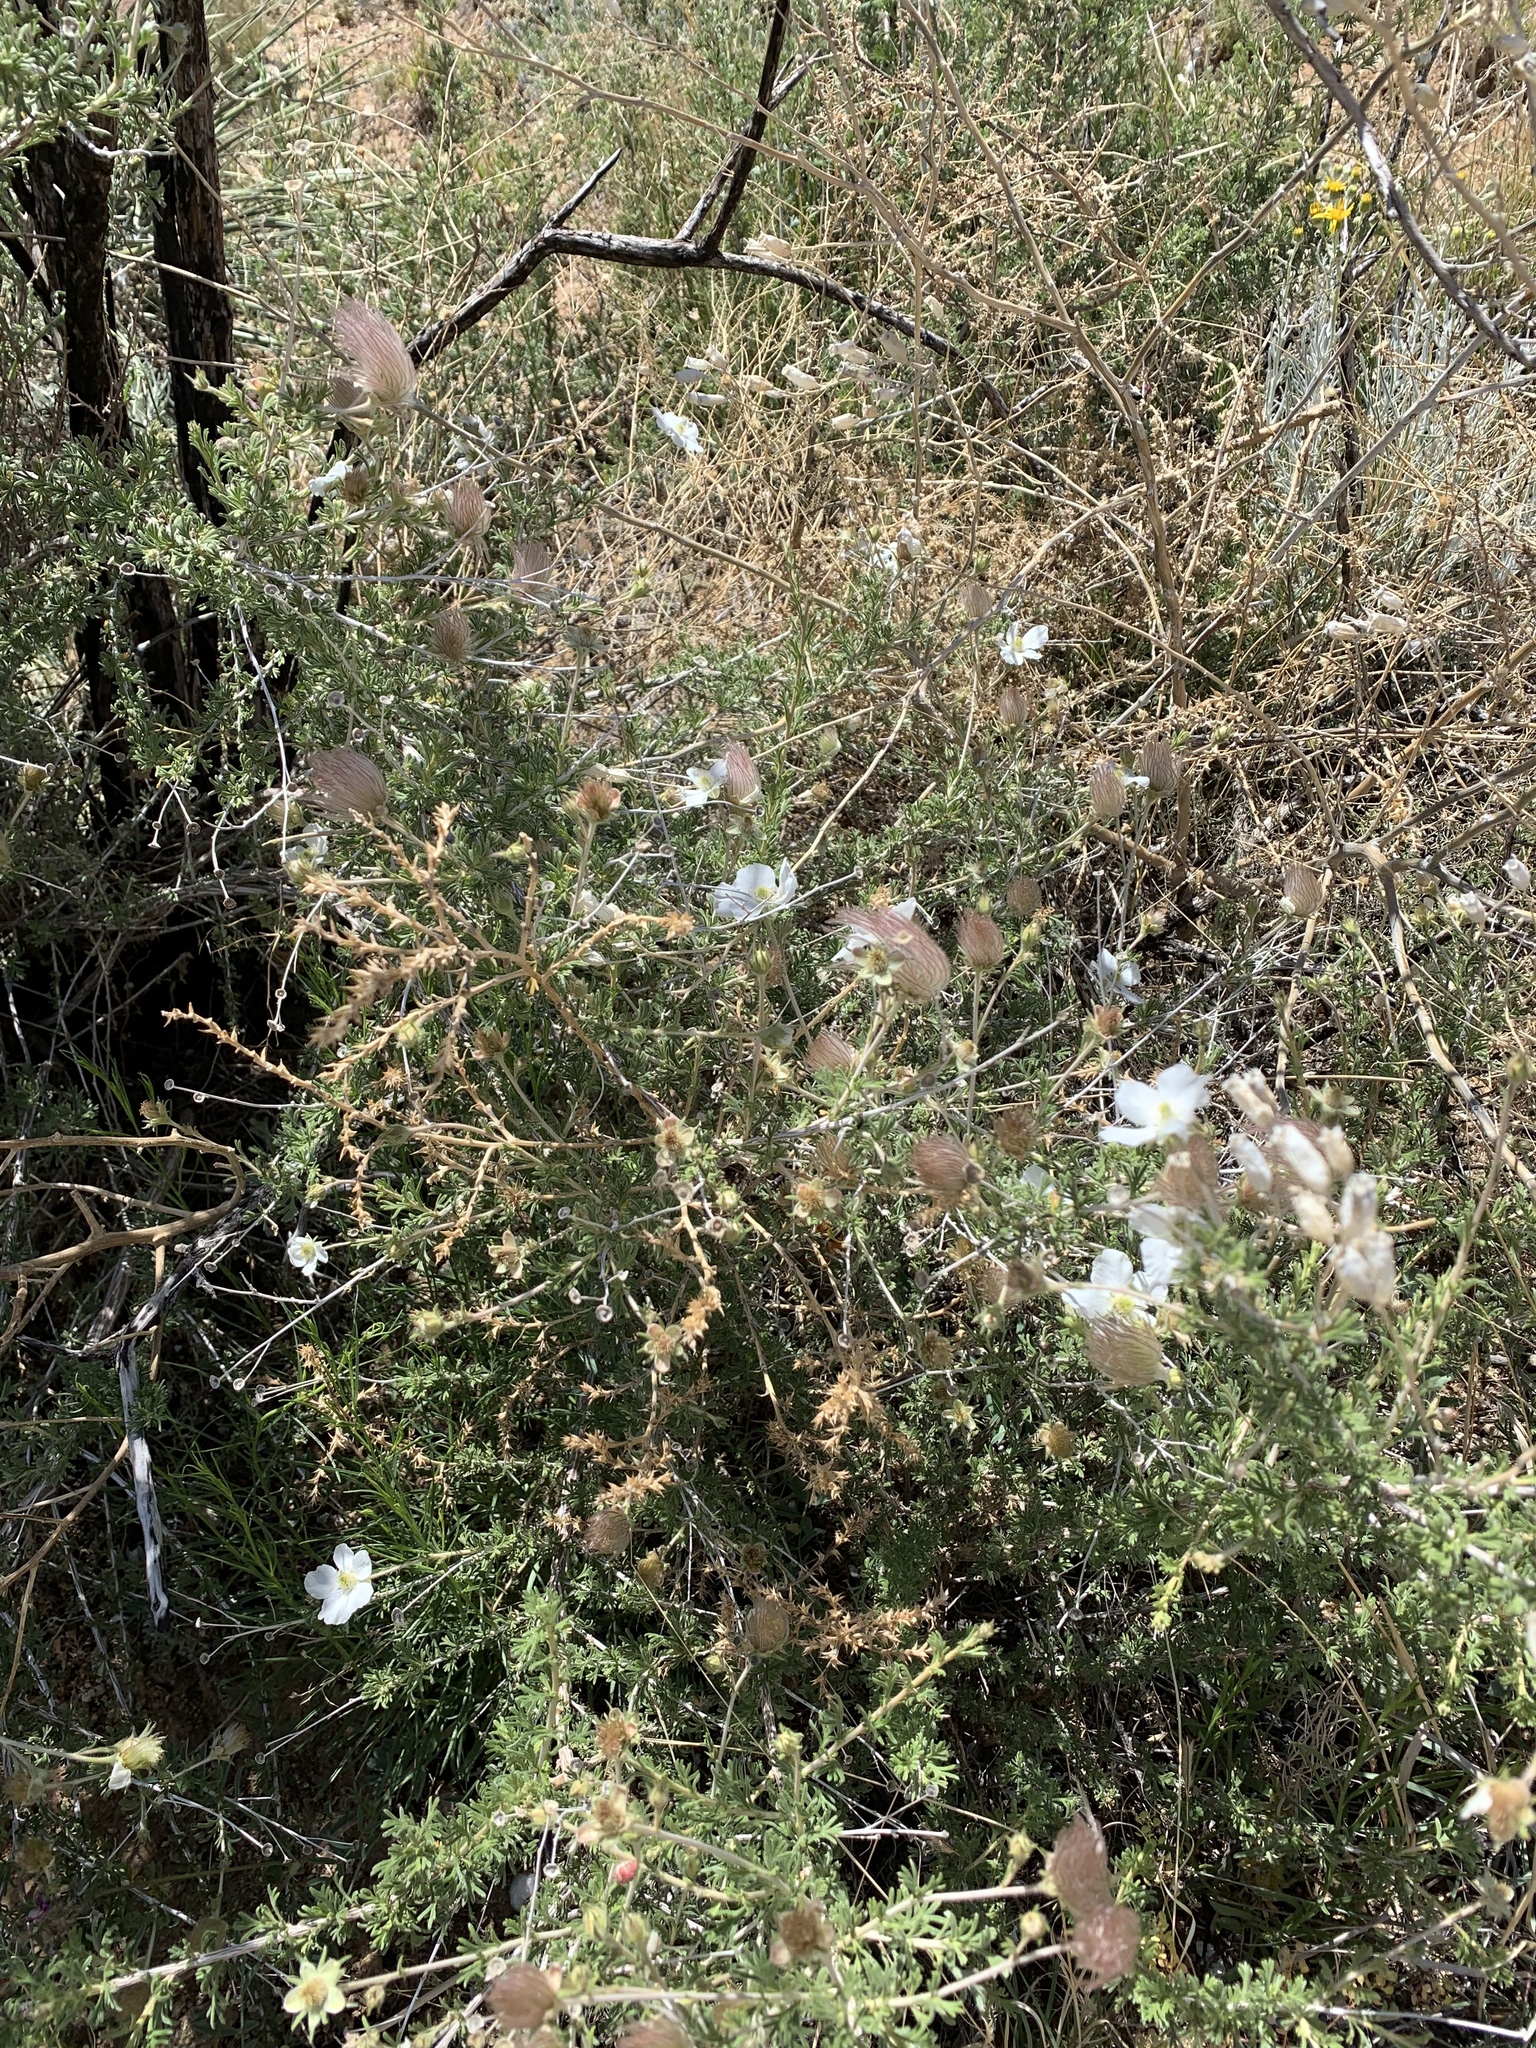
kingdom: Plantae
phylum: Tracheophyta
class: Magnoliopsida
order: Rosales
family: Rosaceae
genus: Fallugia
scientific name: Fallugia paradoxa
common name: Apache-plume
